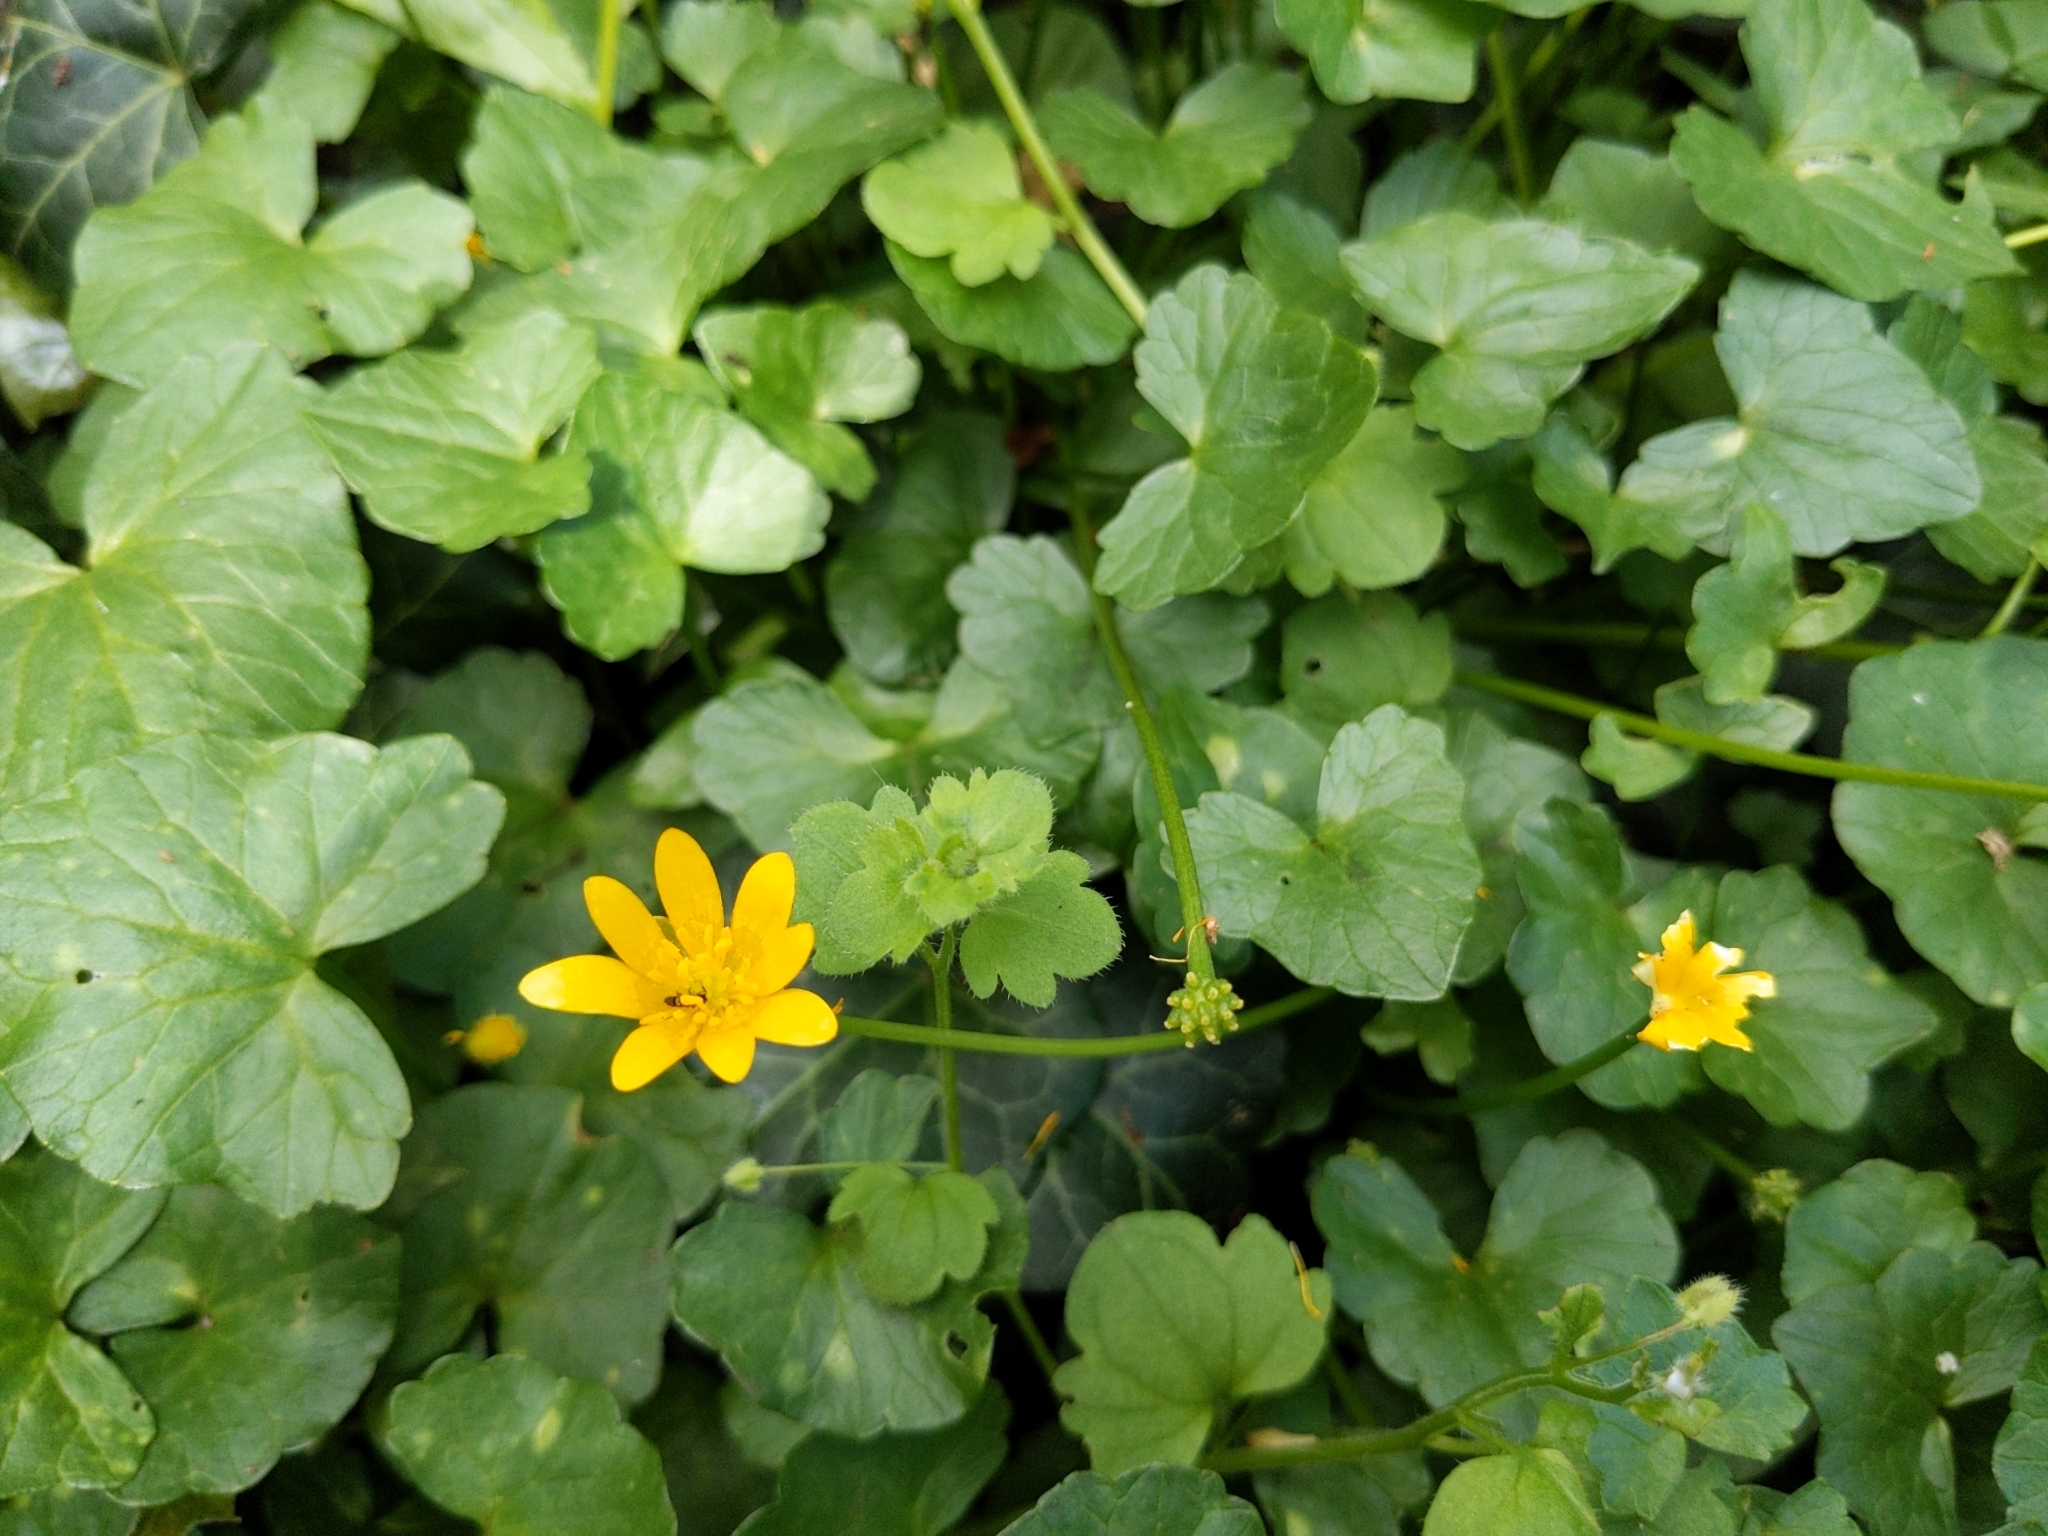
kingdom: Plantae
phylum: Tracheophyta
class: Magnoliopsida
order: Ranunculales
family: Ranunculaceae
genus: Ficaria
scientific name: Ficaria verna
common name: Lesser celandine
